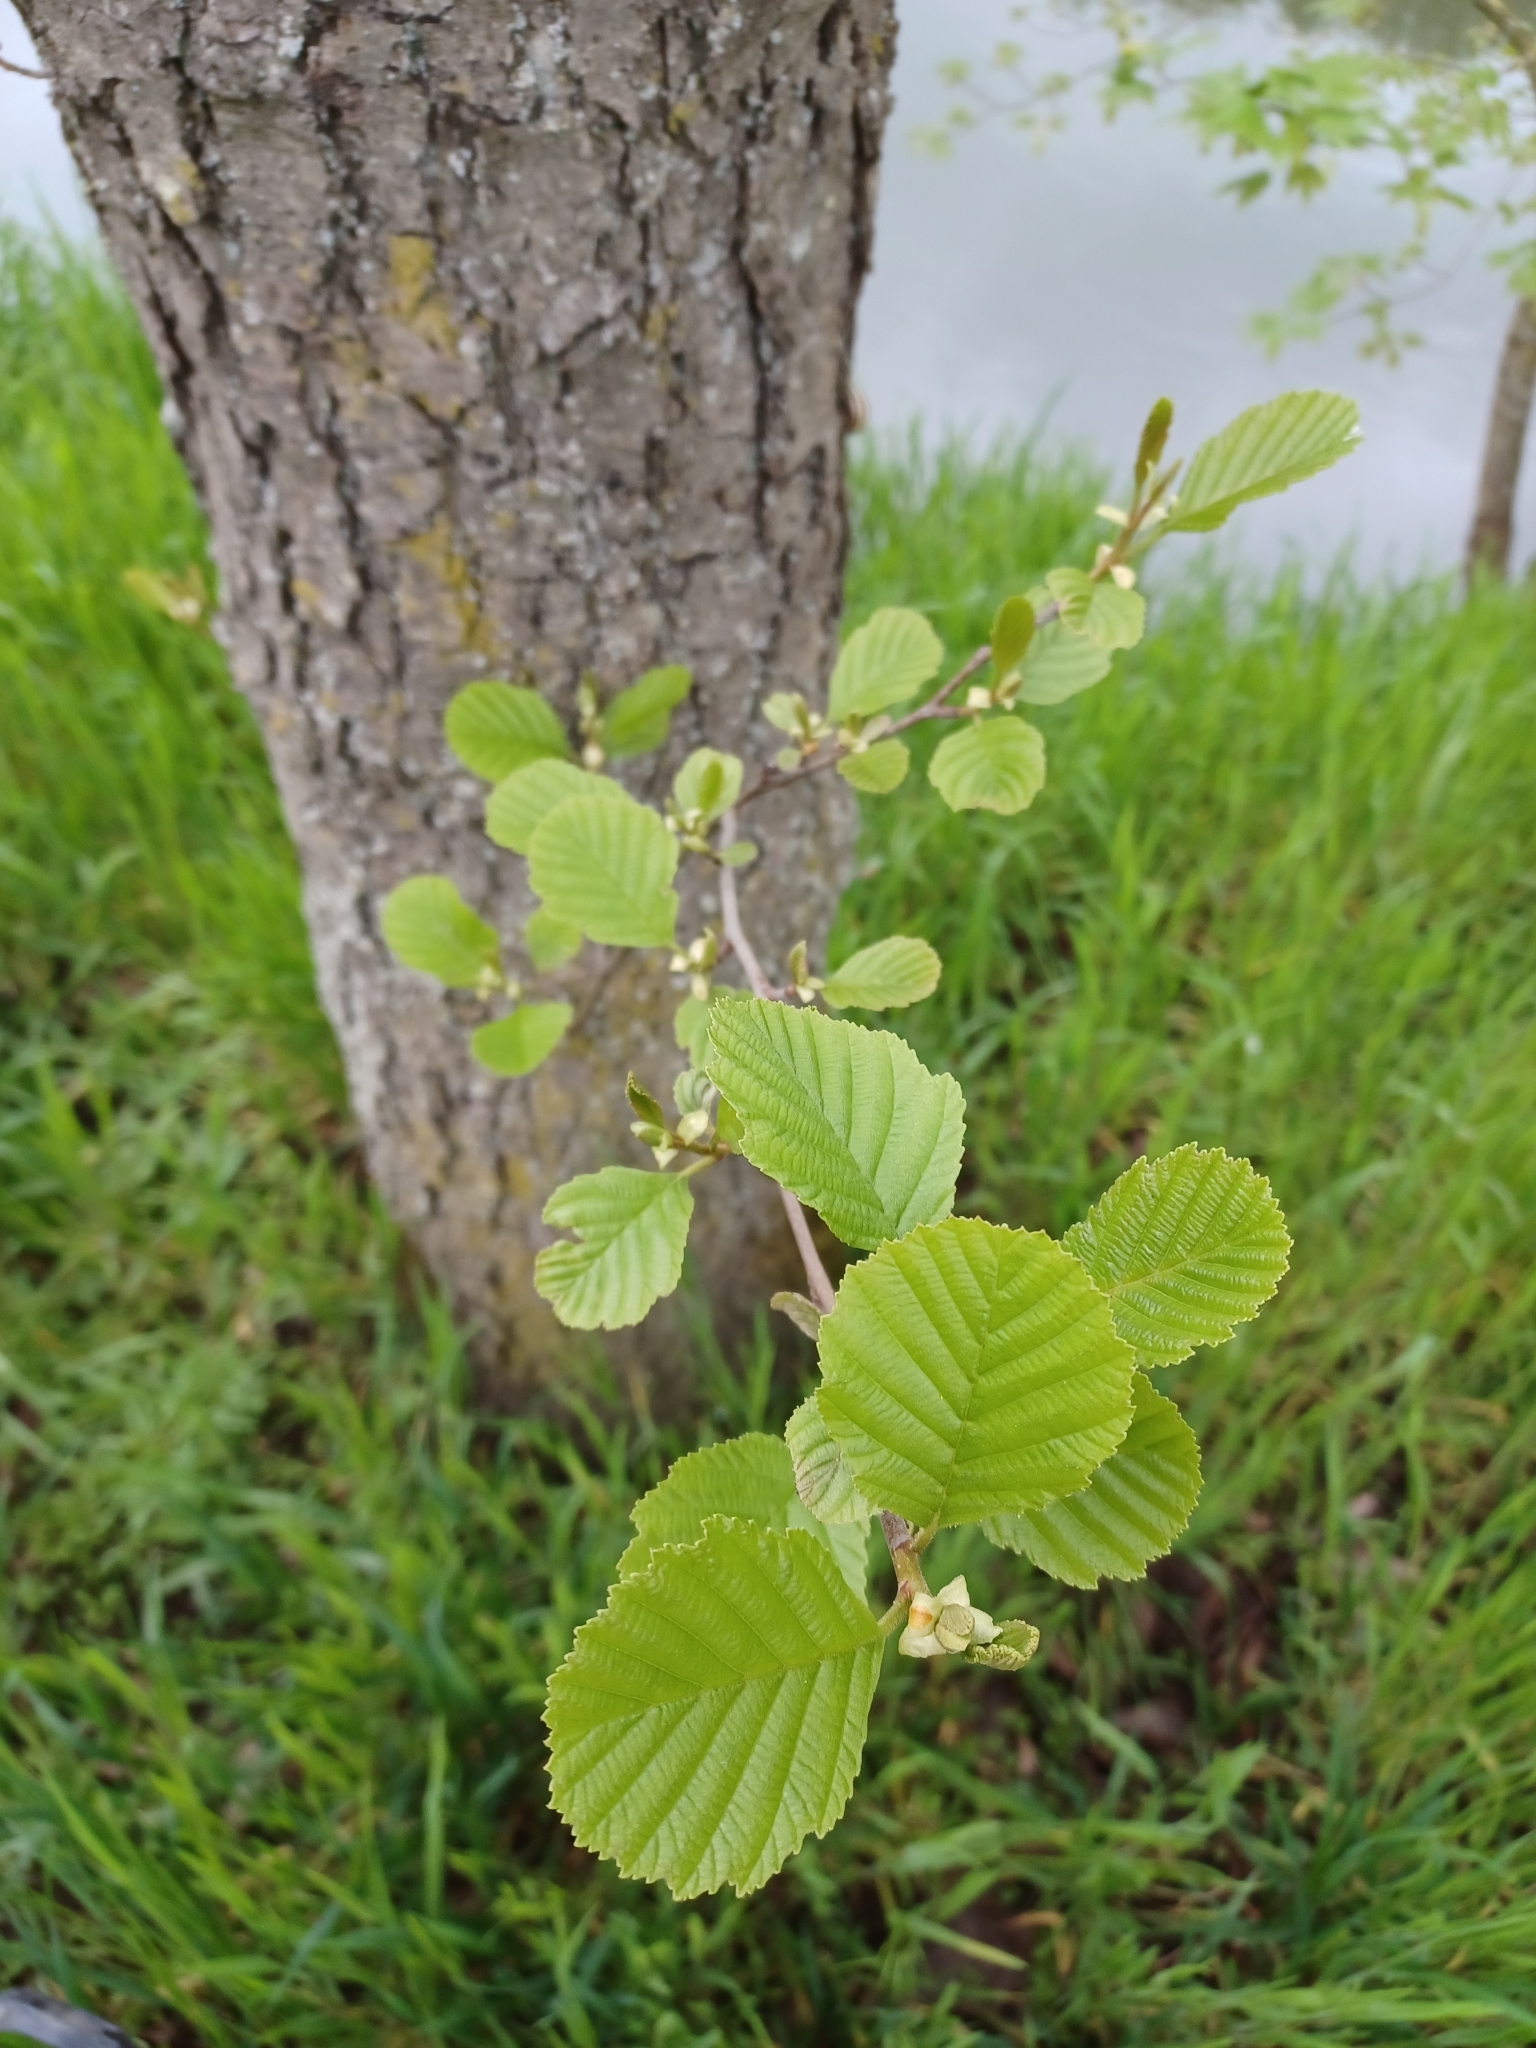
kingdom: Plantae
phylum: Tracheophyta
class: Magnoliopsida
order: Fagales
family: Betulaceae
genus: Alnus
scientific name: Alnus glutinosa
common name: Black alder
